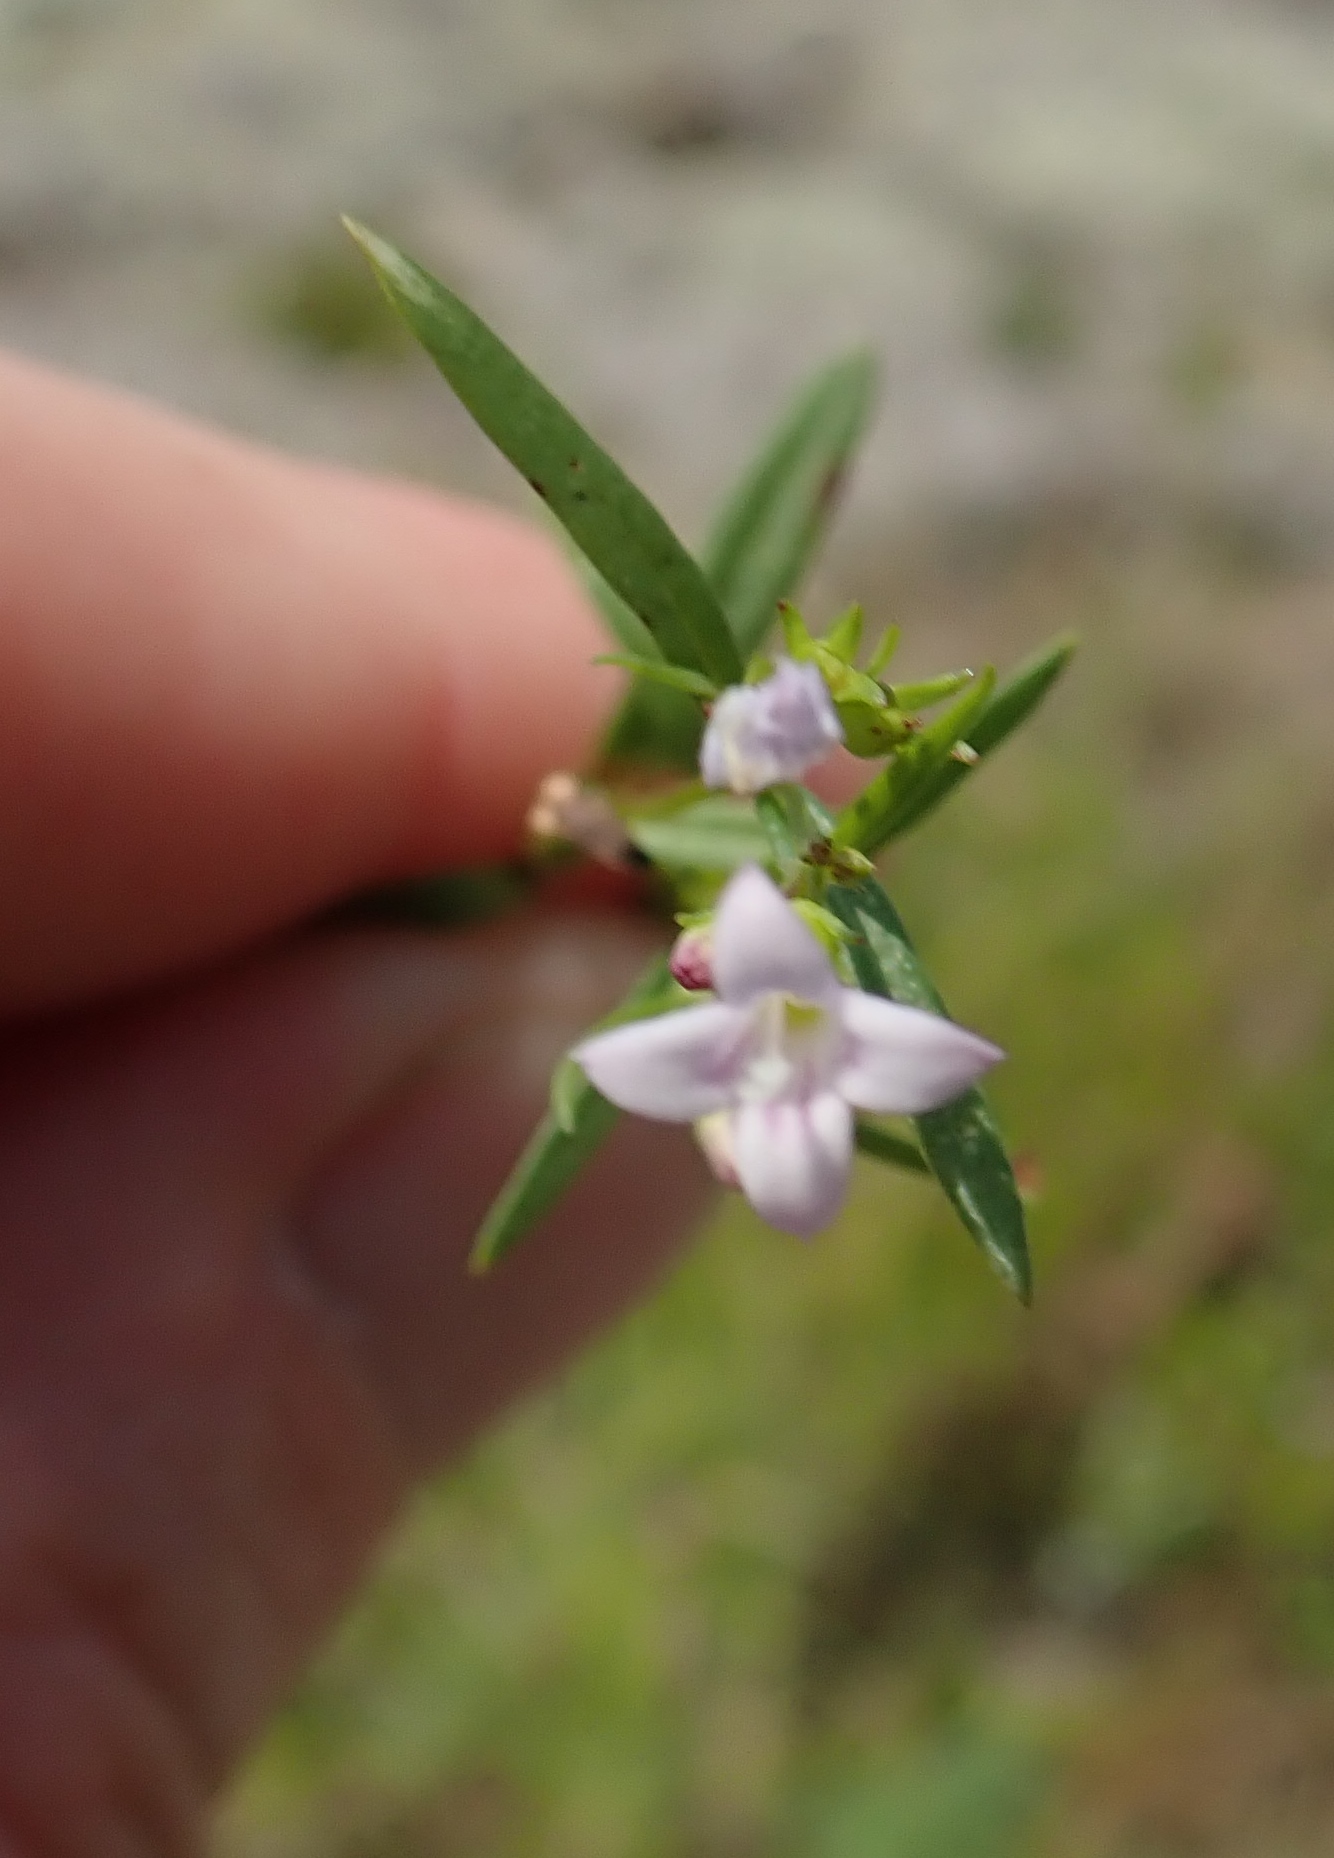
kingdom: Plantae
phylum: Tracheophyta
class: Magnoliopsida
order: Gentianales
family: Rubiaceae
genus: Houstonia
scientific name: Houstonia longifolia
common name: Long-leaved bluets
